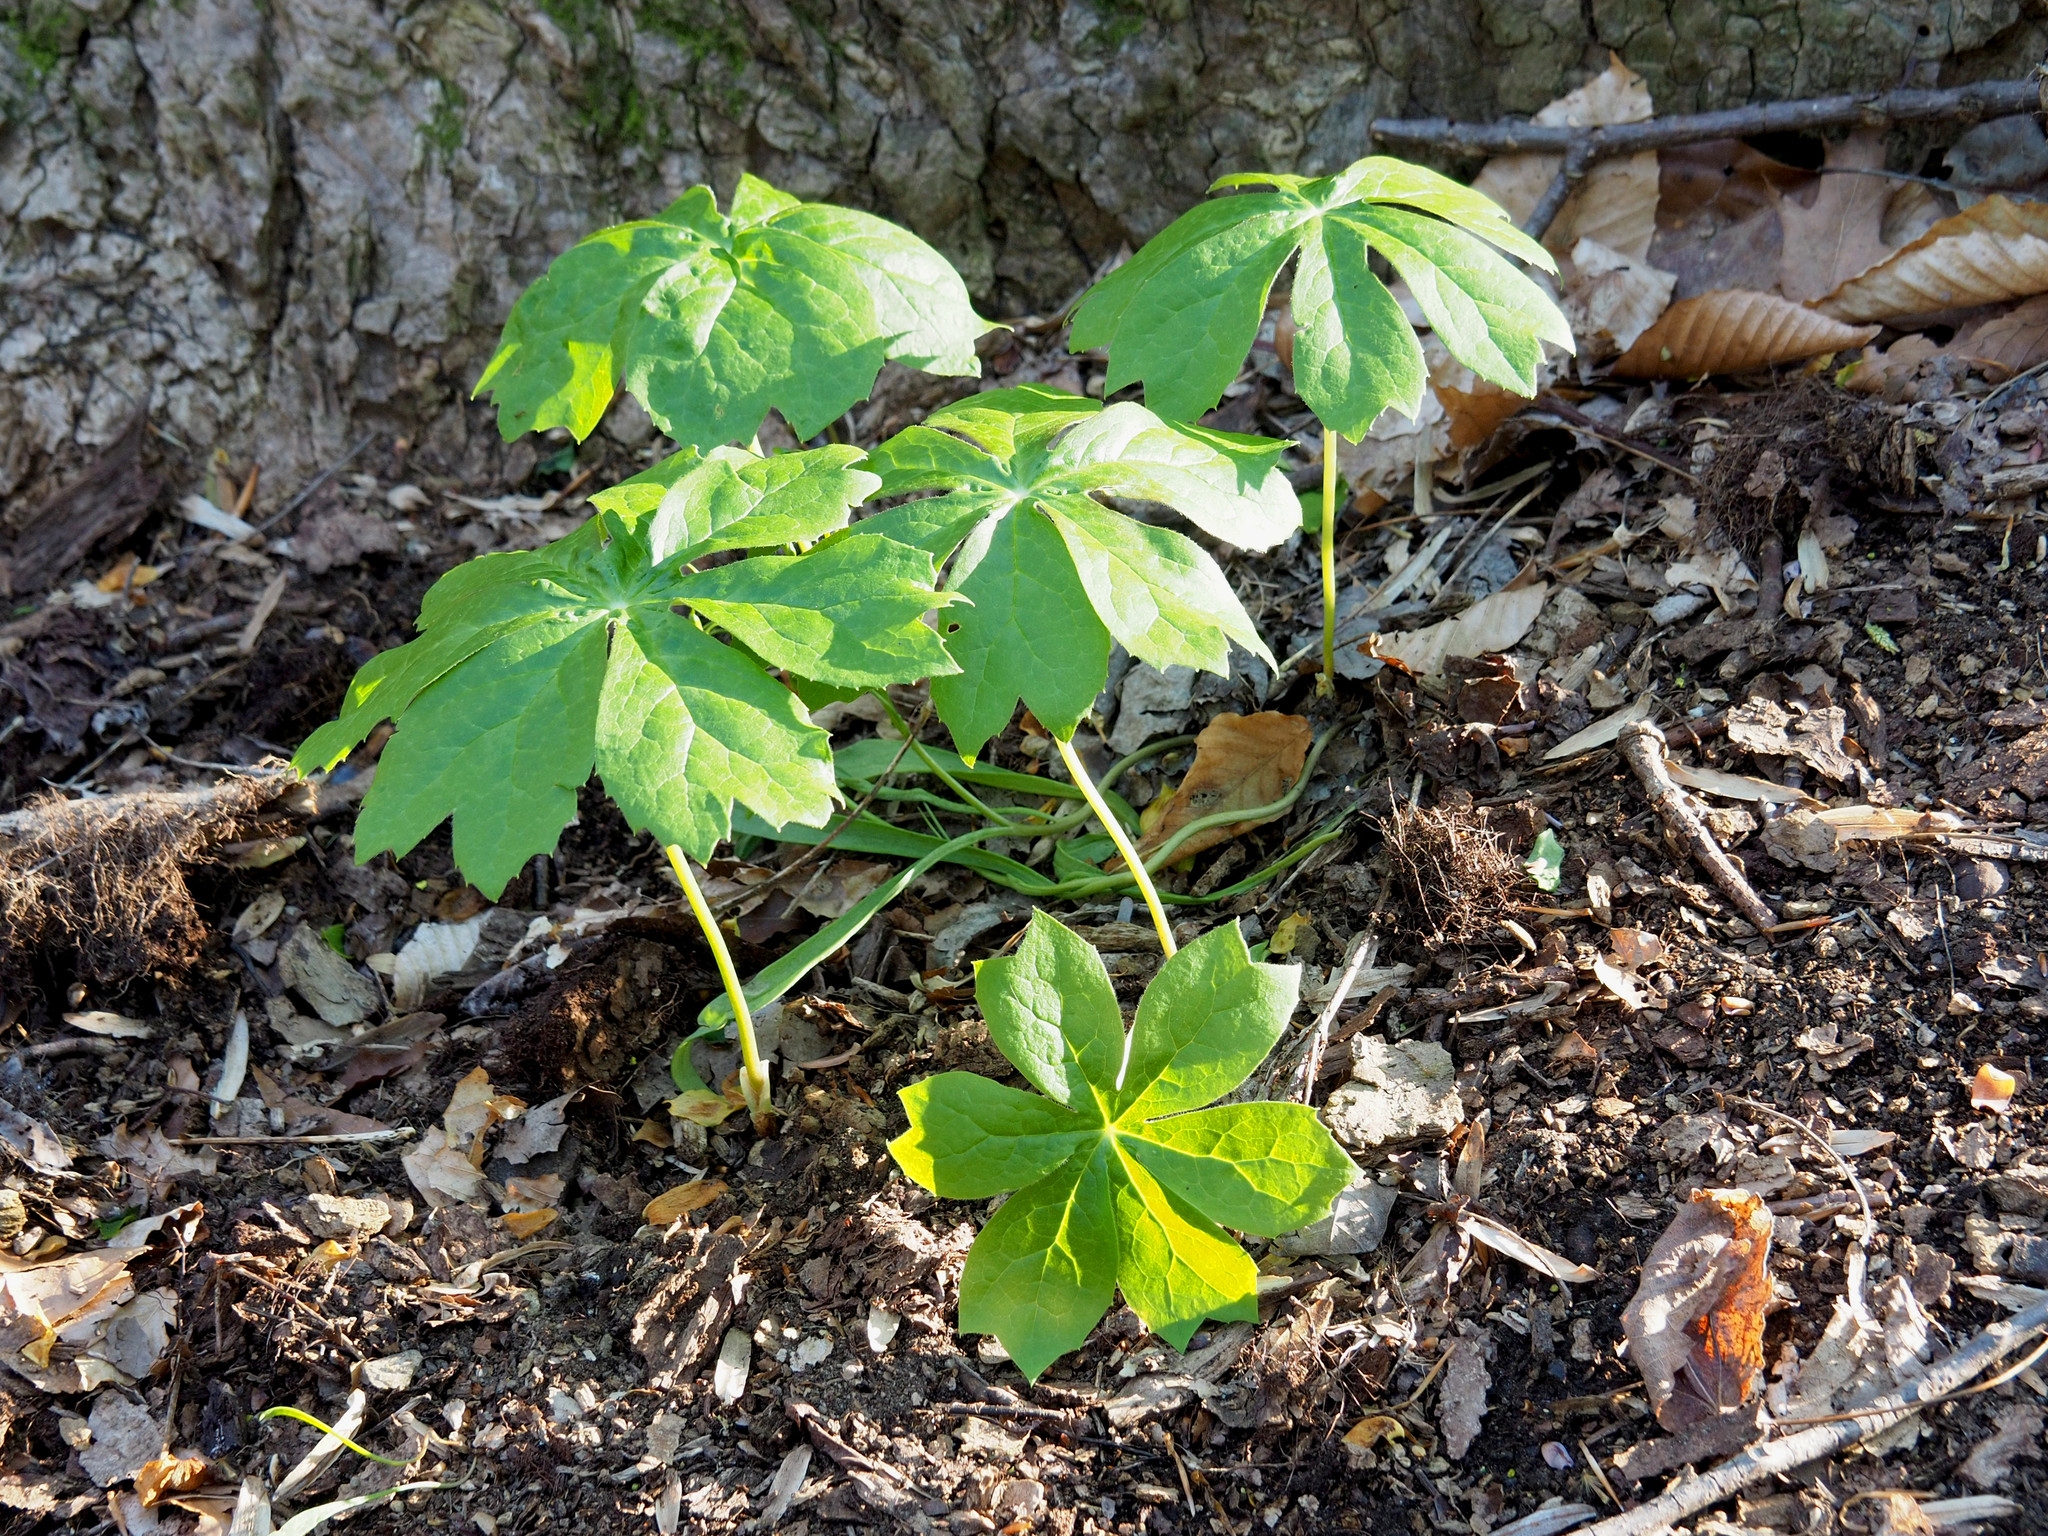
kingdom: Plantae
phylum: Tracheophyta
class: Magnoliopsida
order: Ranunculales
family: Berberidaceae
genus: Podophyllum
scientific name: Podophyllum peltatum
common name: Wild mandrake
